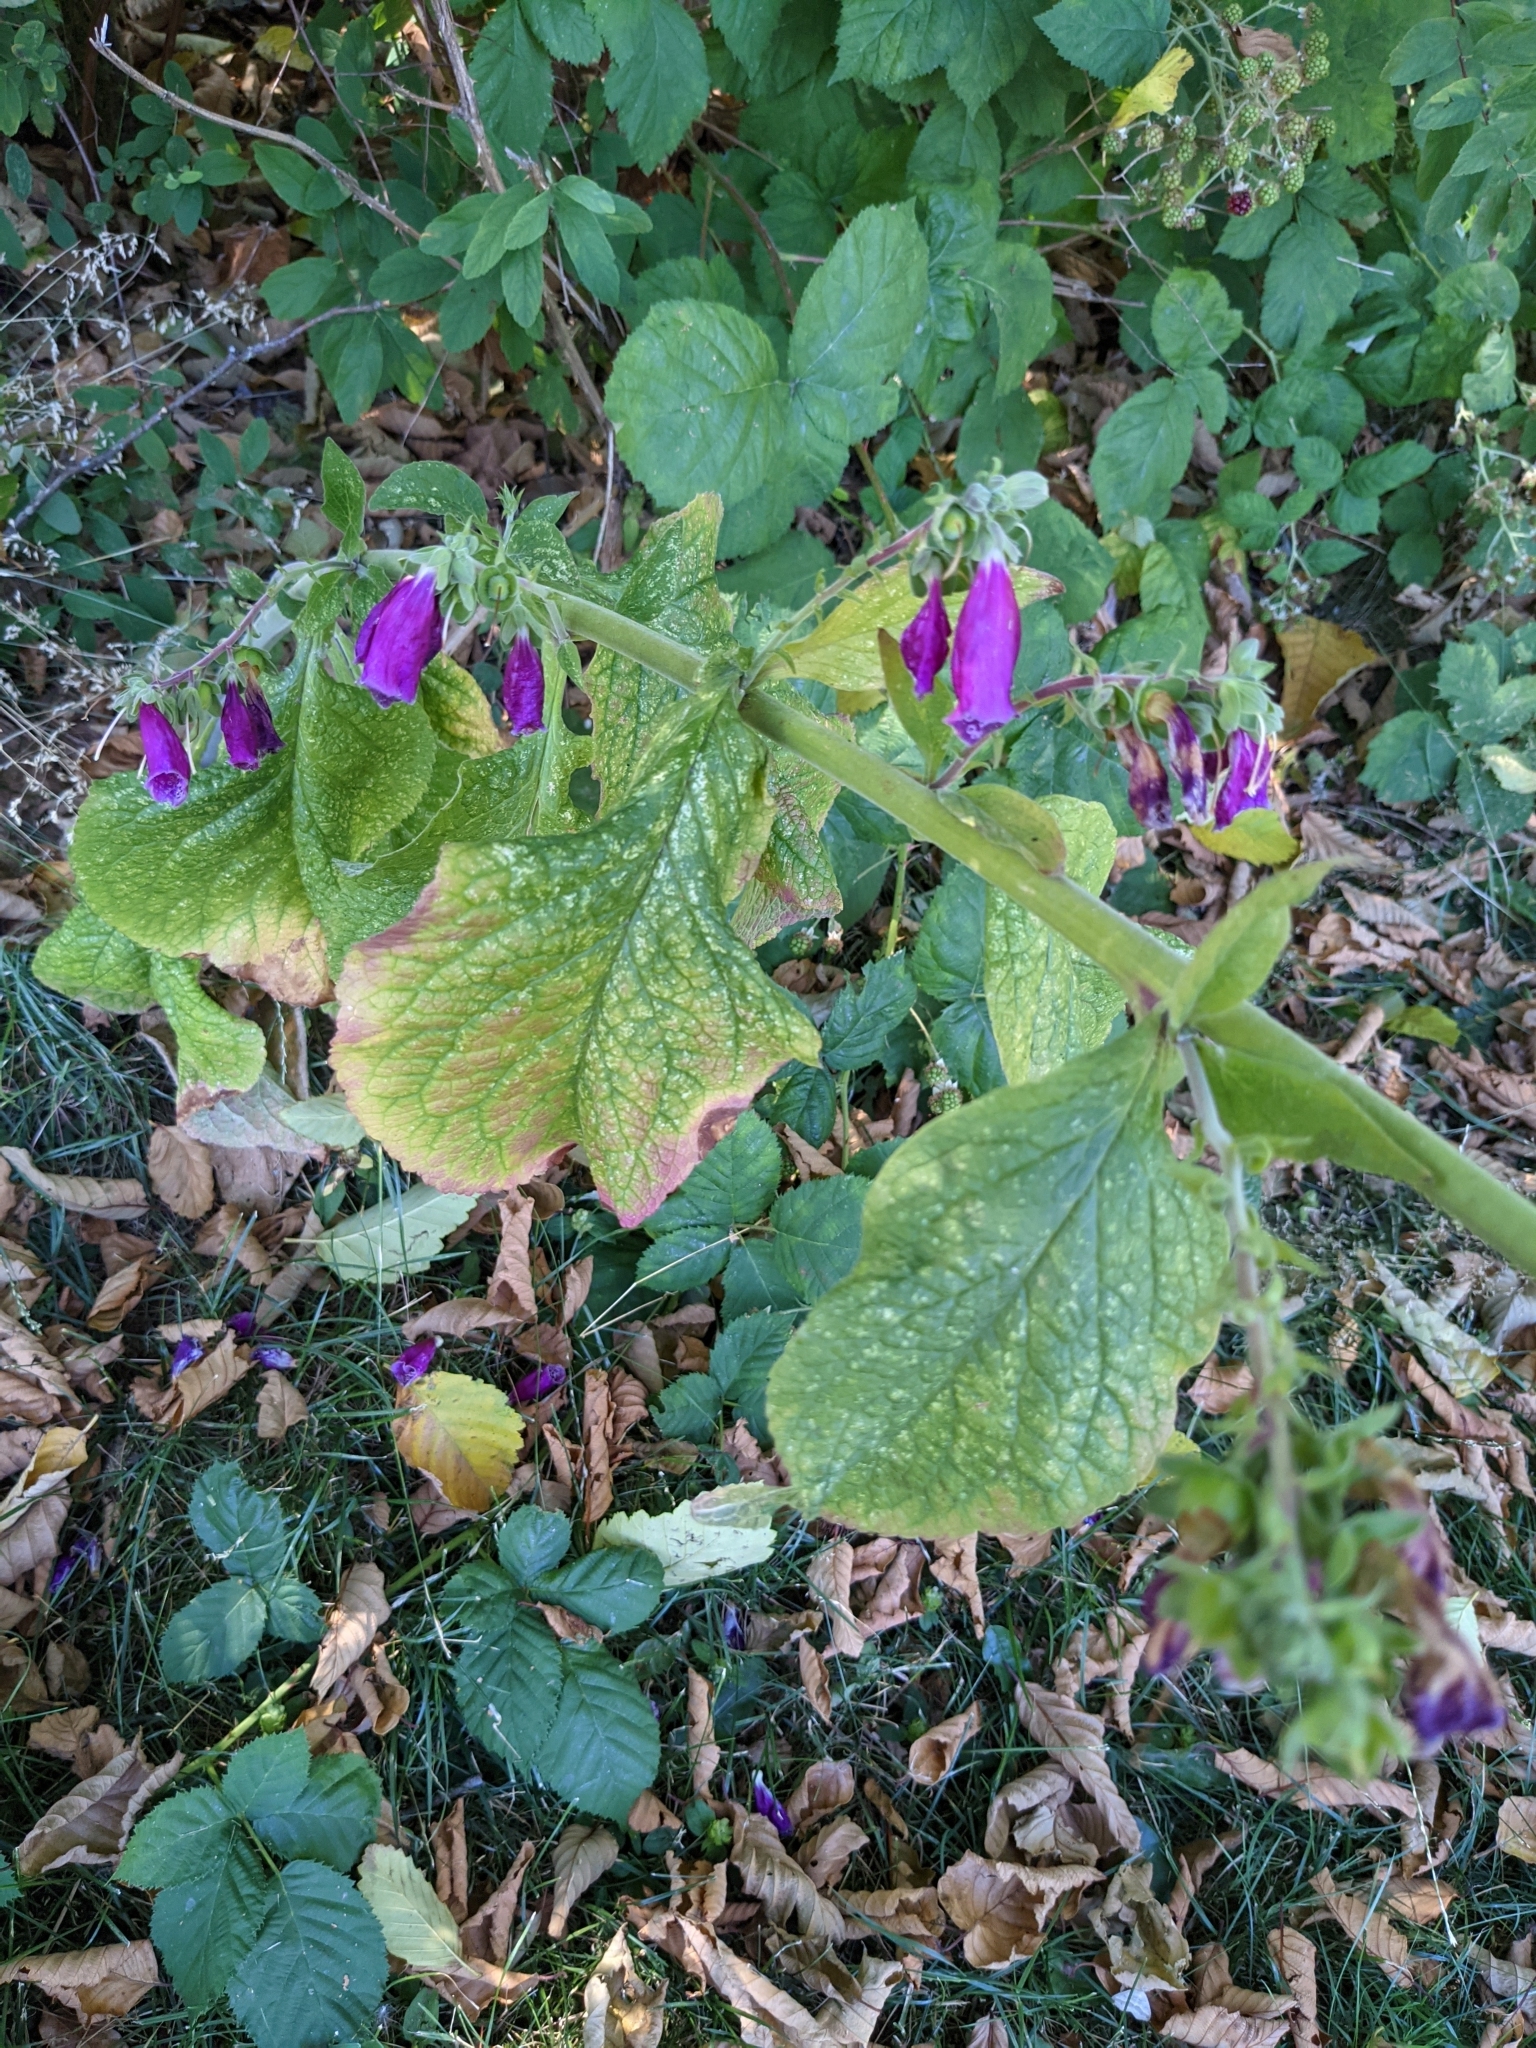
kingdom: Plantae
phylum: Tracheophyta
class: Magnoliopsida
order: Lamiales
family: Plantaginaceae
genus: Digitalis
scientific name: Digitalis purpurea
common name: Foxglove
